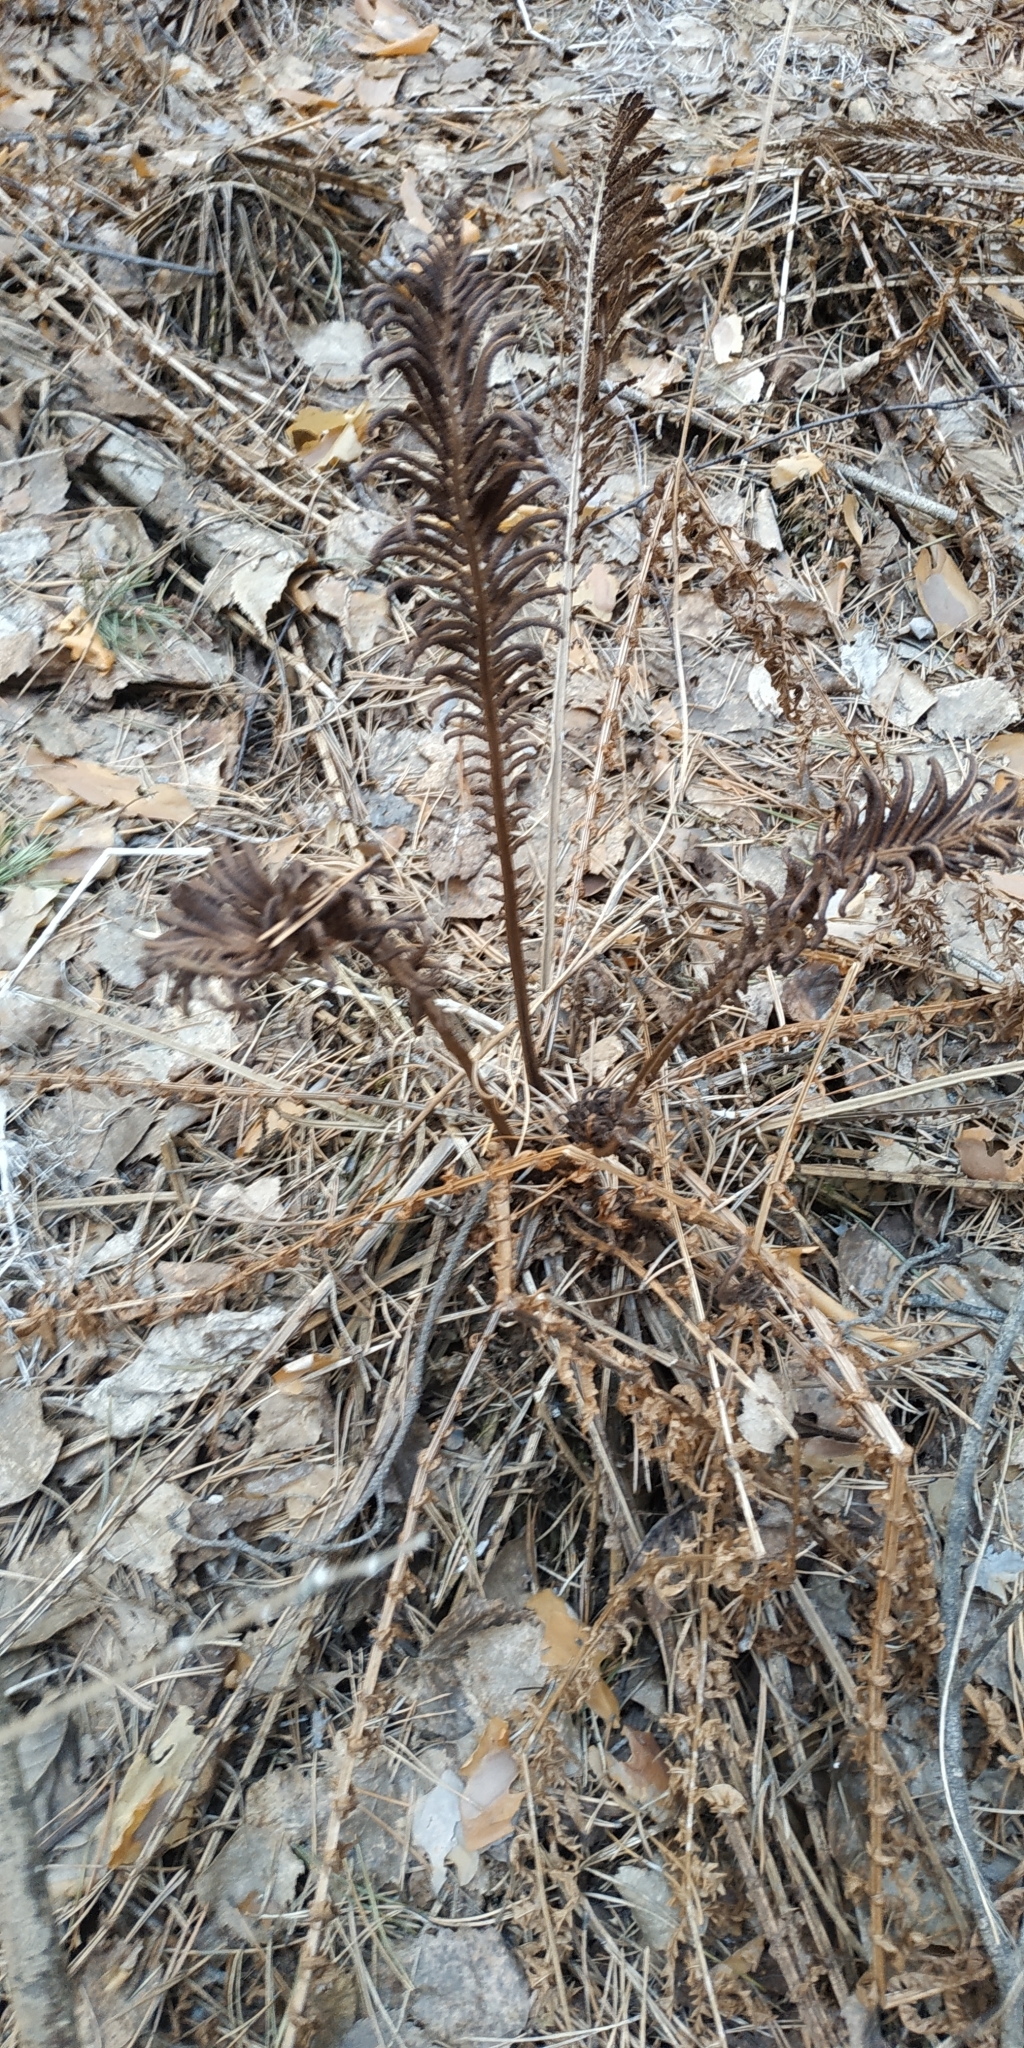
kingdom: Plantae
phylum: Tracheophyta
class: Polypodiopsida
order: Polypodiales
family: Onocleaceae
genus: Matteuccia
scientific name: Matteuccia struthiopteris
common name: Ostrich fern
